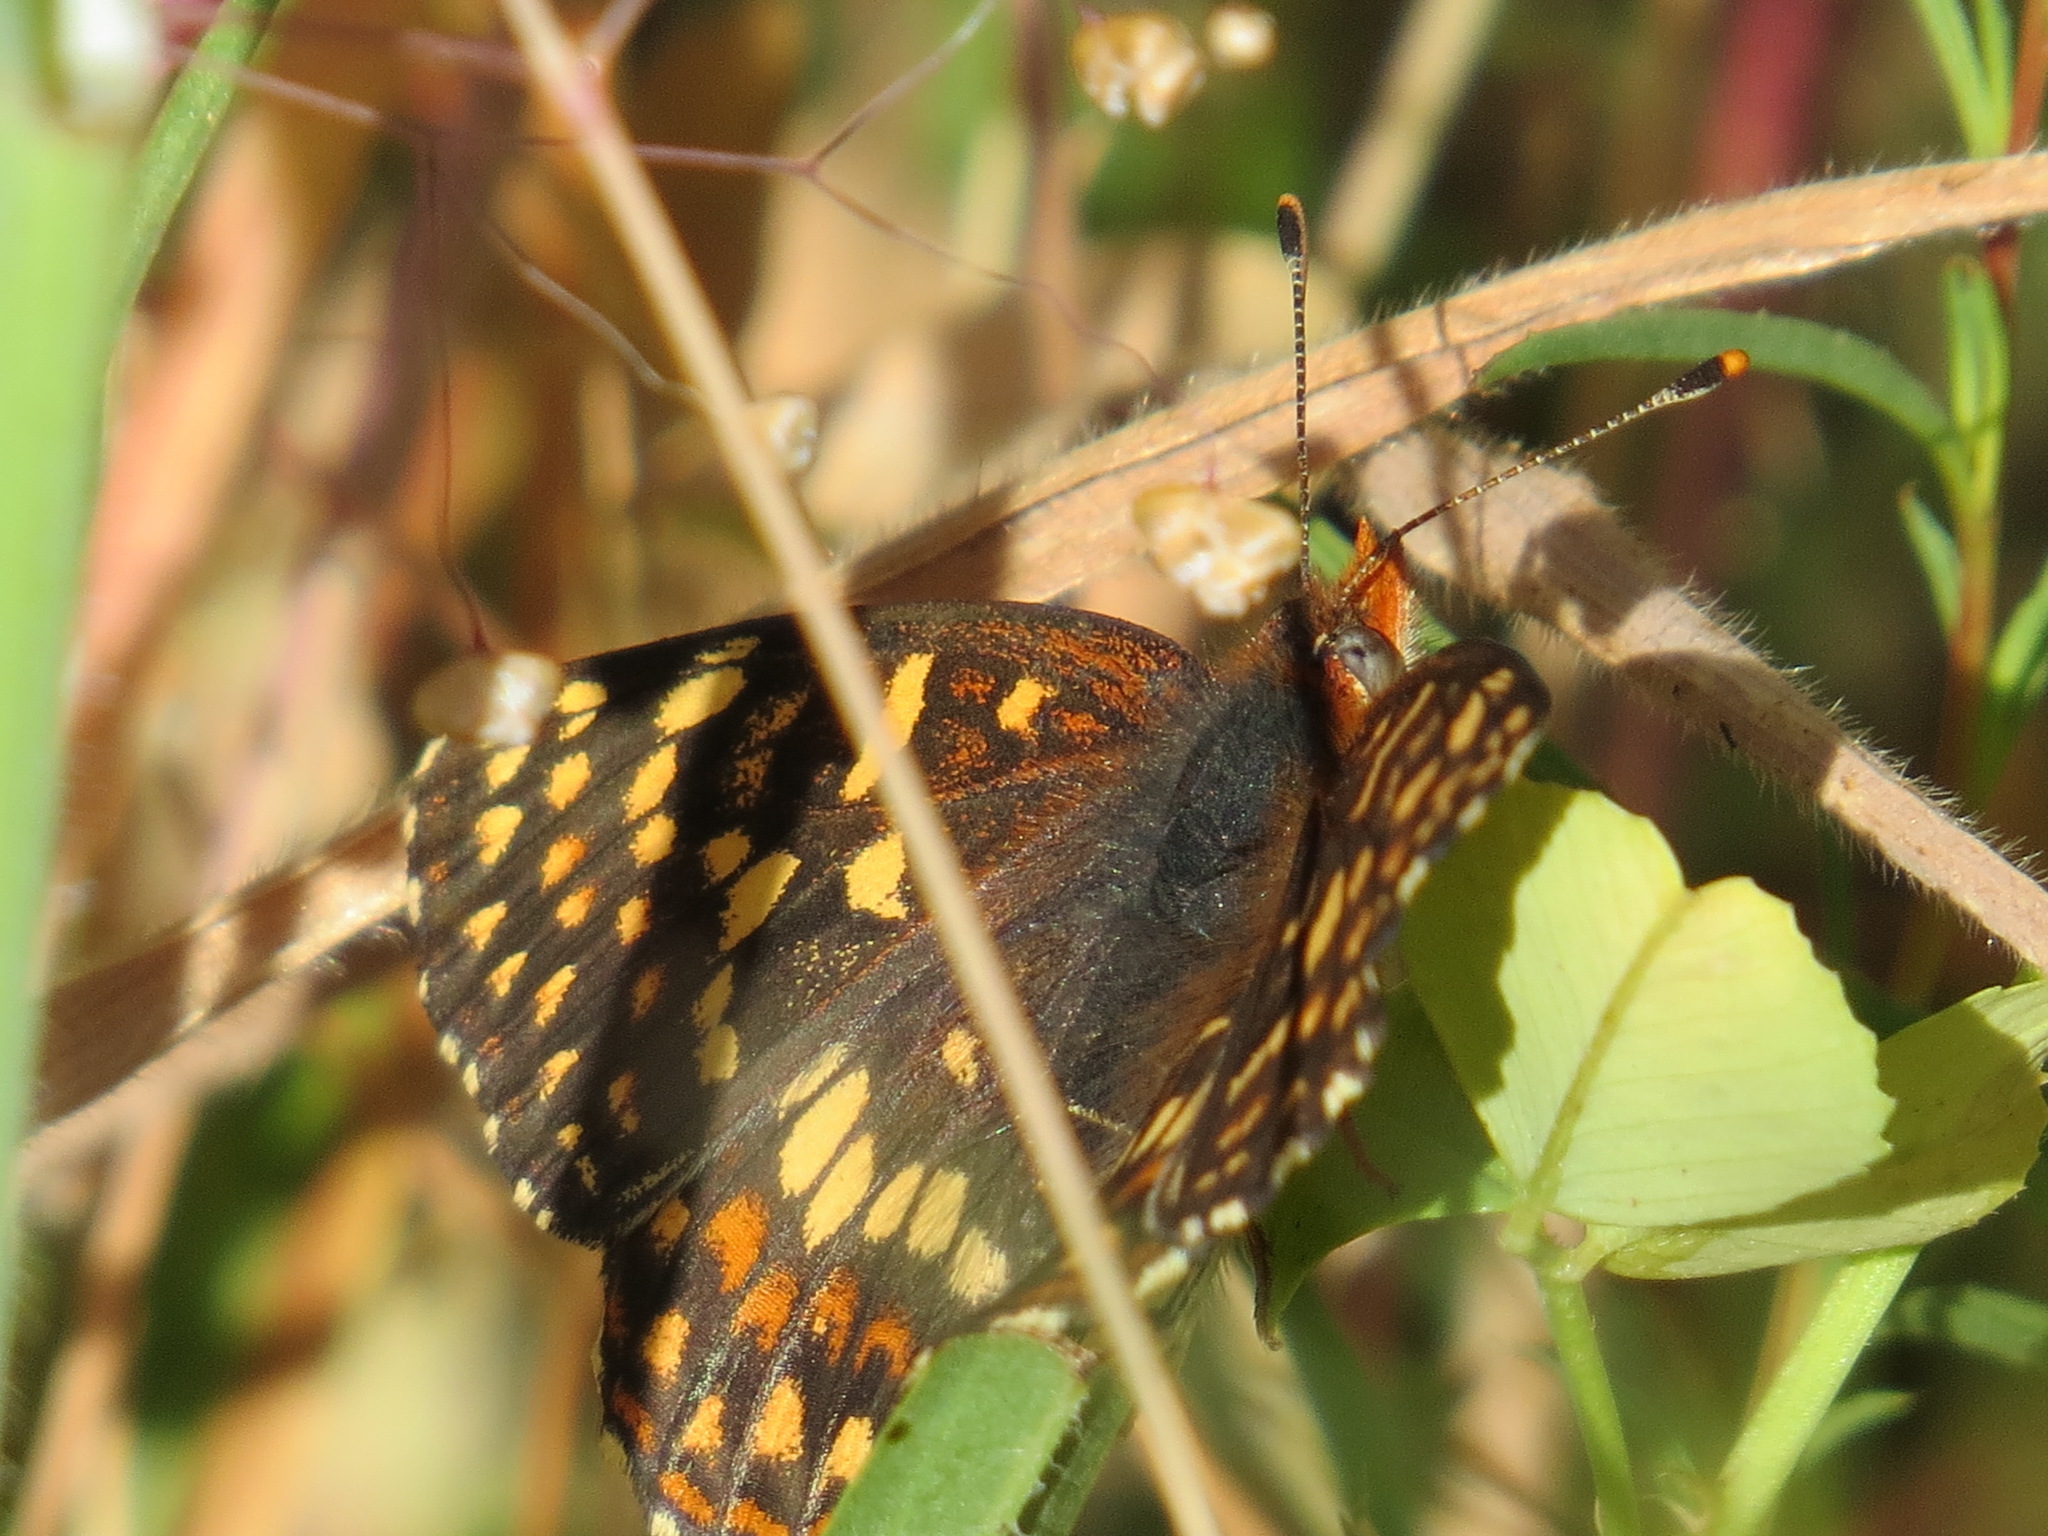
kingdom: Animalia
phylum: Arthropoda
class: Insecta
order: Lepidoptera
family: Nymphalidae
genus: Chlosyne
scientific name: Chlosyne palla
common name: Northern checkerspot
